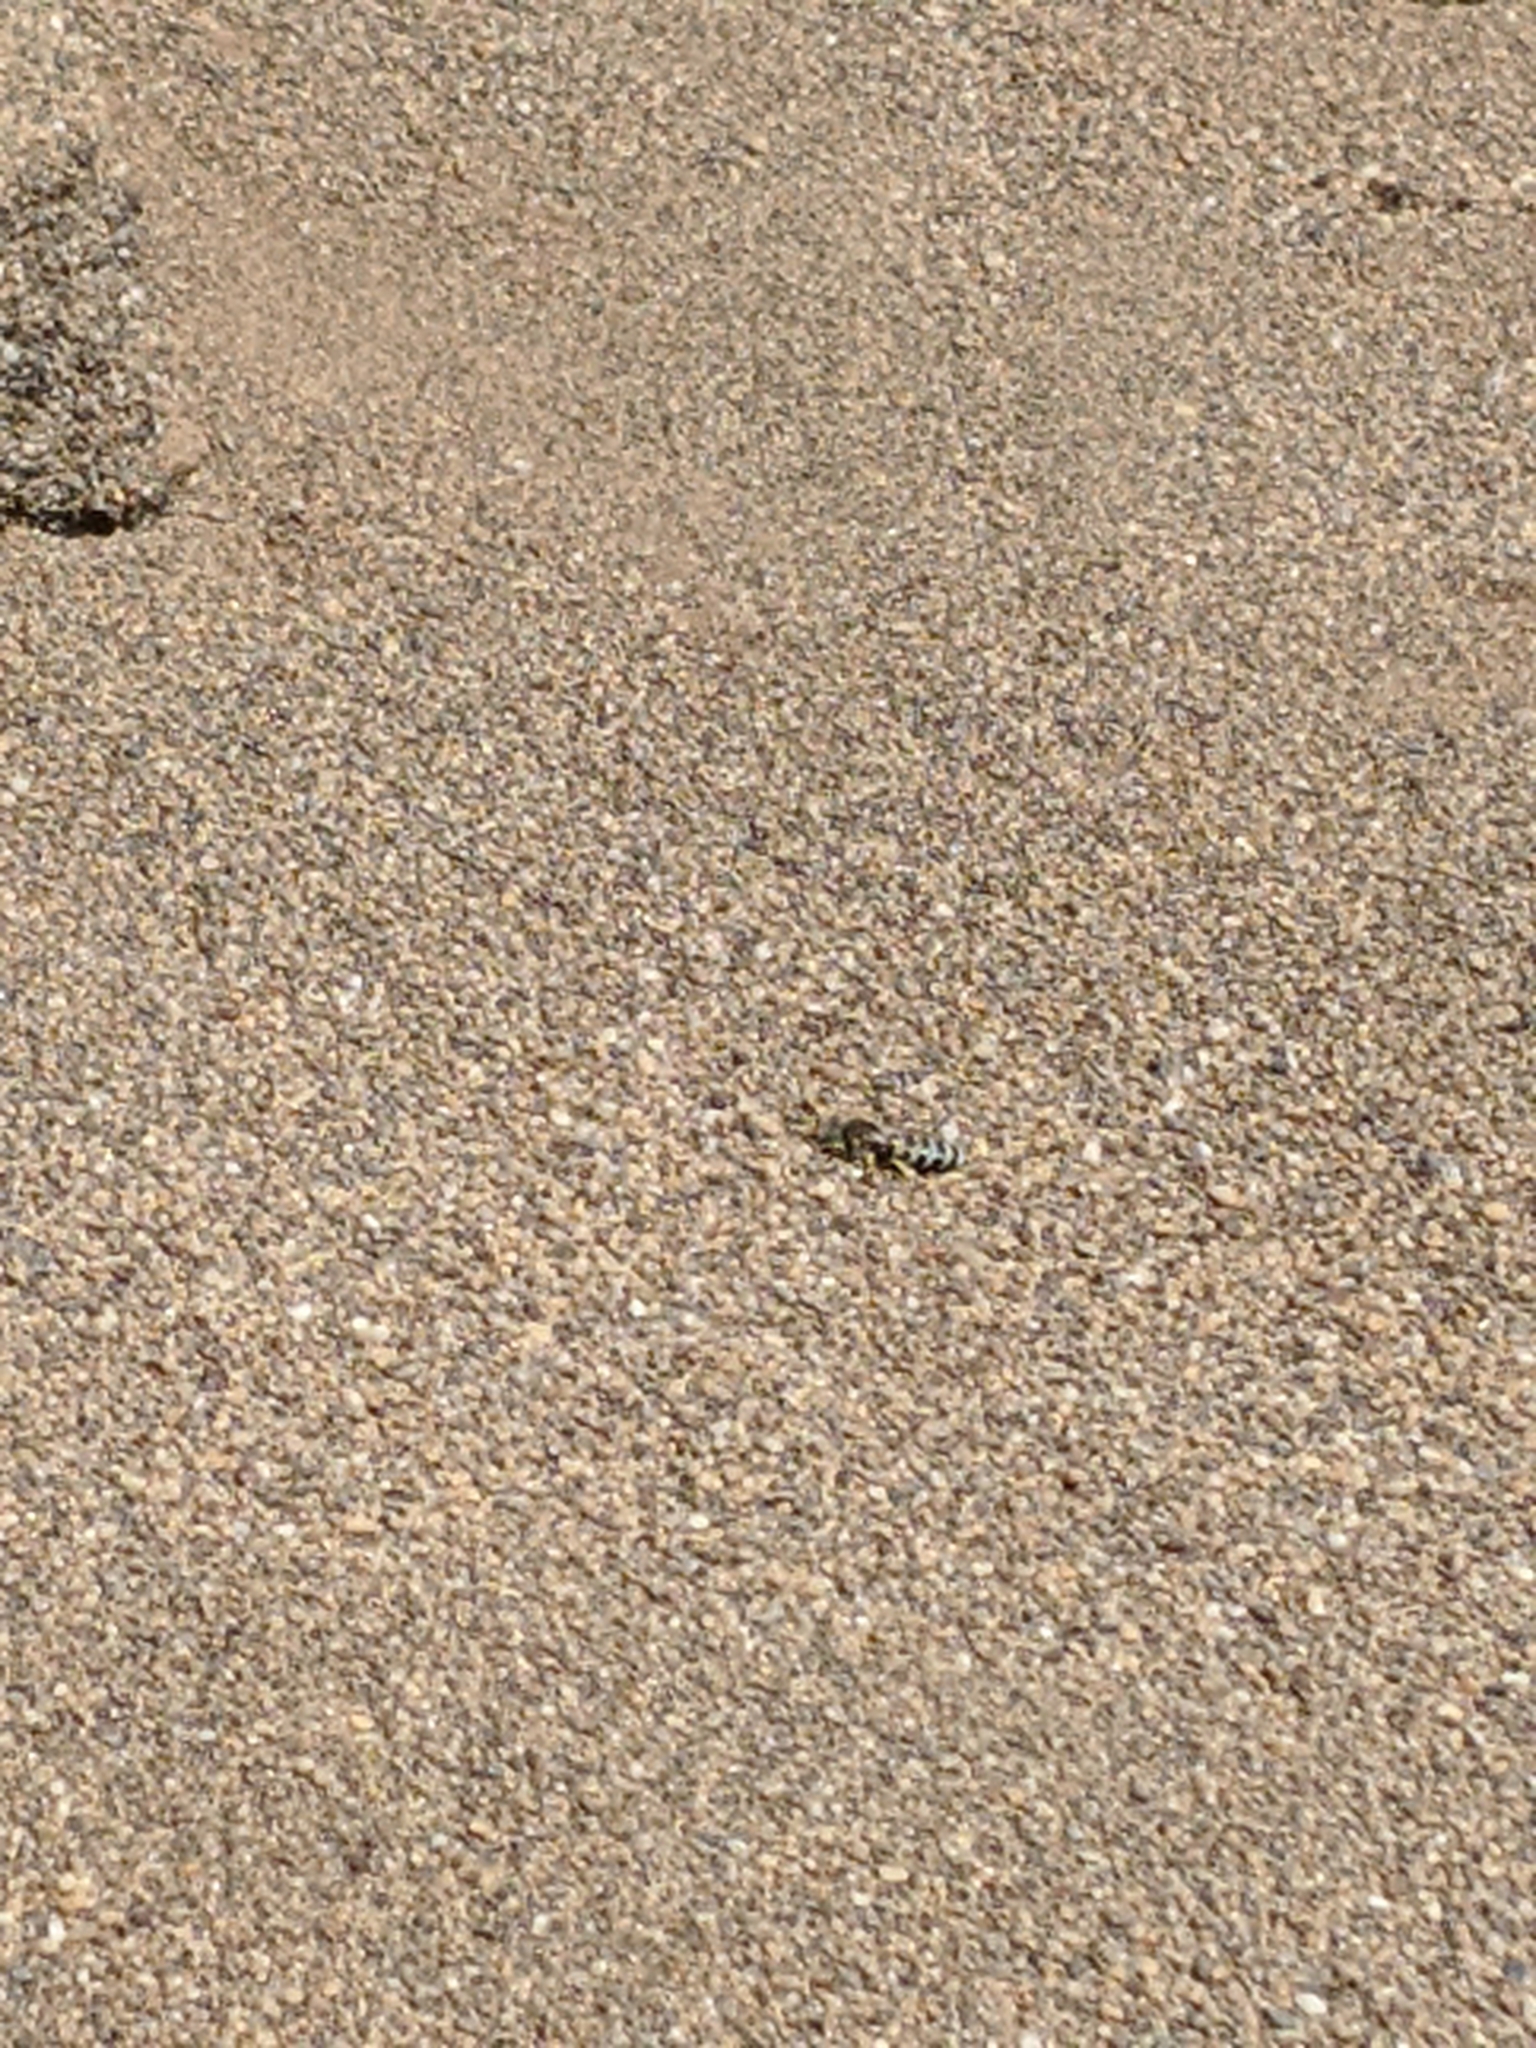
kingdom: Animalia
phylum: Arthropoda
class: Insecta
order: Hymenoptera
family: Crabronidae
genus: Bembix
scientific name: Bembix americana
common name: American sand wasp
